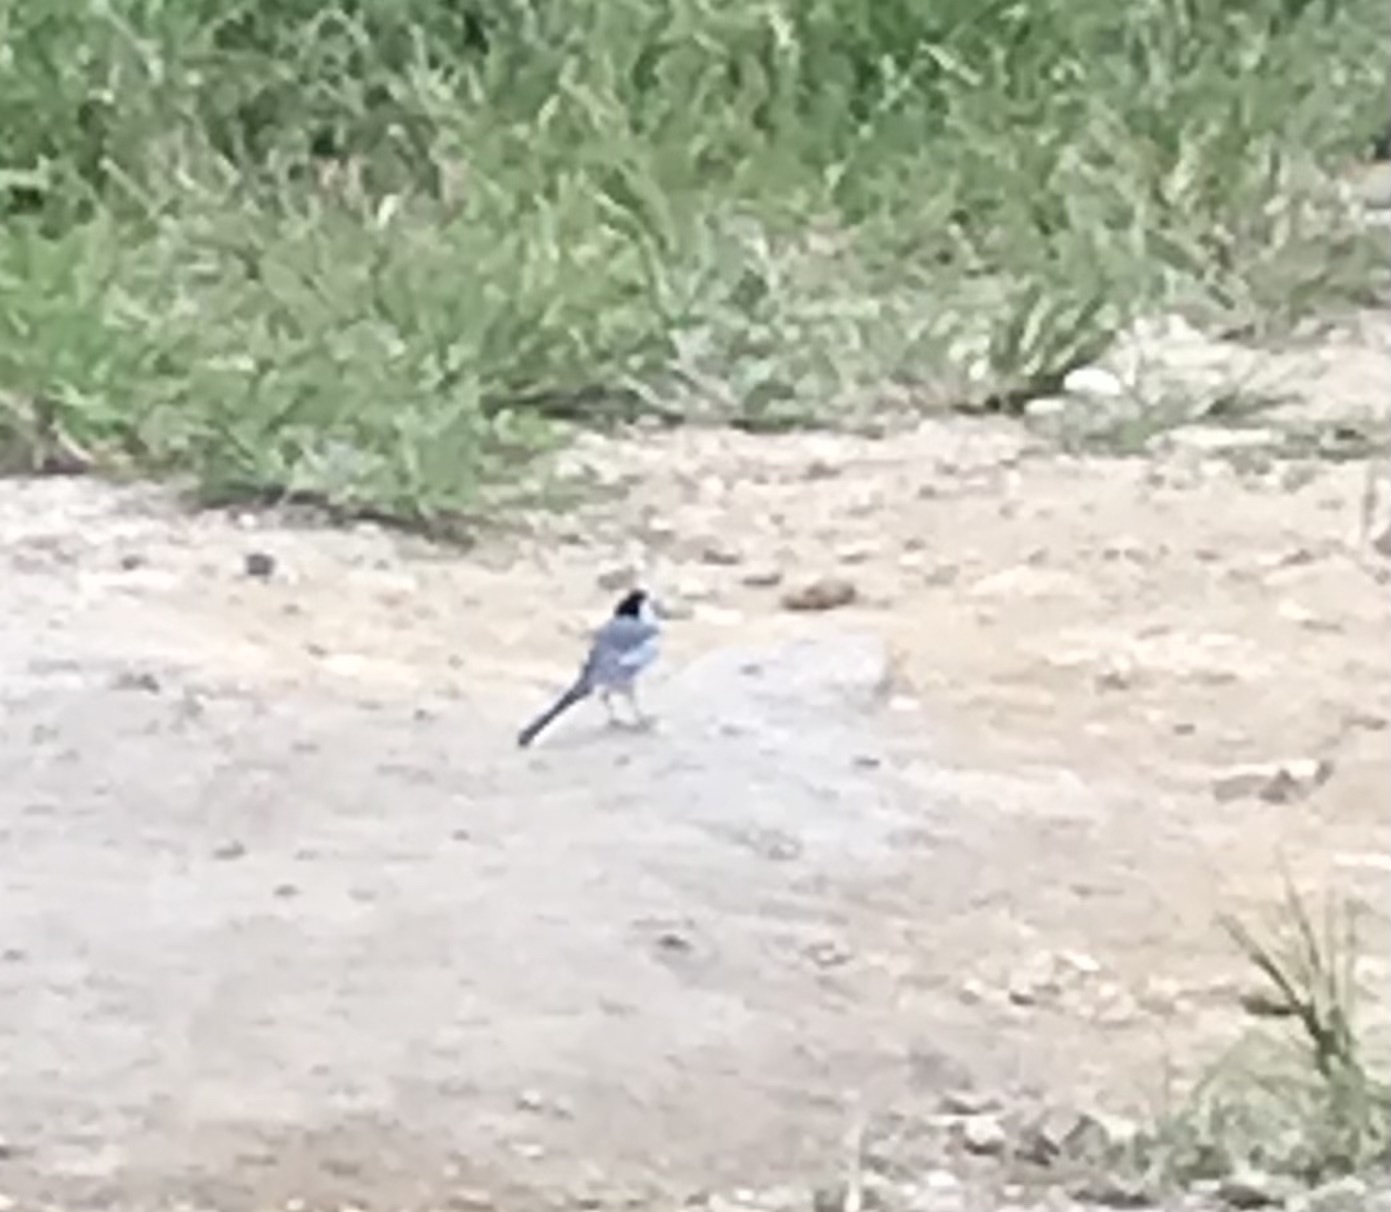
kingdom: Animalia
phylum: Chordata
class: Aves
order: Passeriformes
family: Motacillidae
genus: Motacilla
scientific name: Motacilla alba
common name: White wagtail
